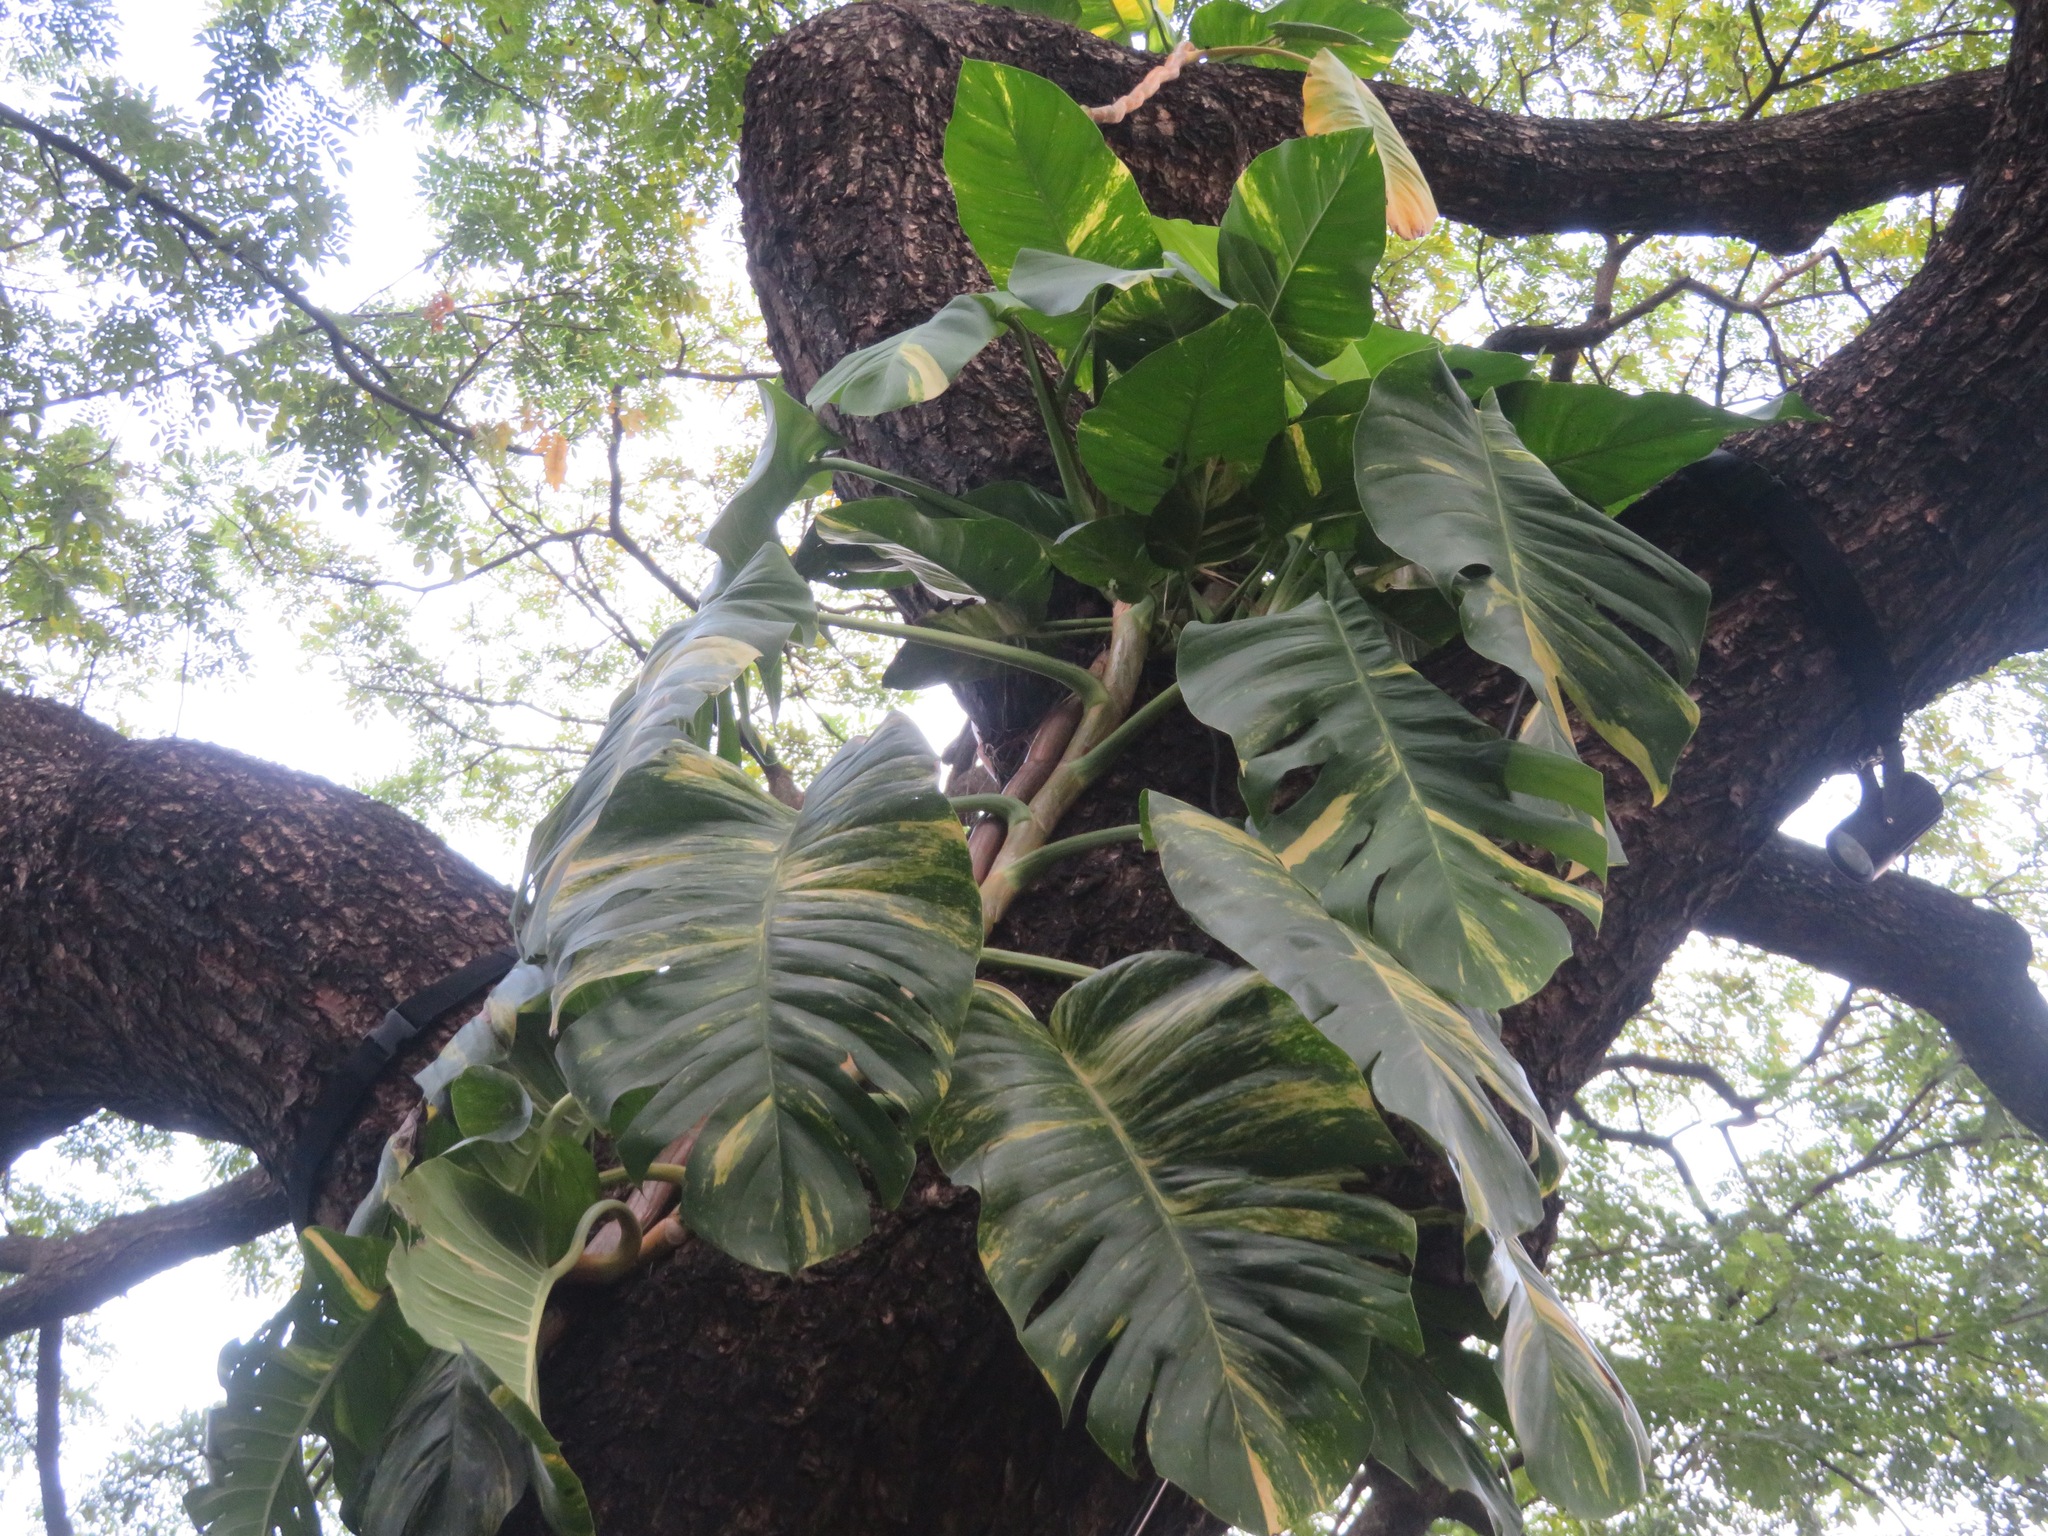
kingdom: Plantae
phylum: Tracheophyta
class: Liliopsida
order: Alismatales
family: Araceae
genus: Epipremnum
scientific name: Epipremnum aureum
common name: Golden hunter's-robe
